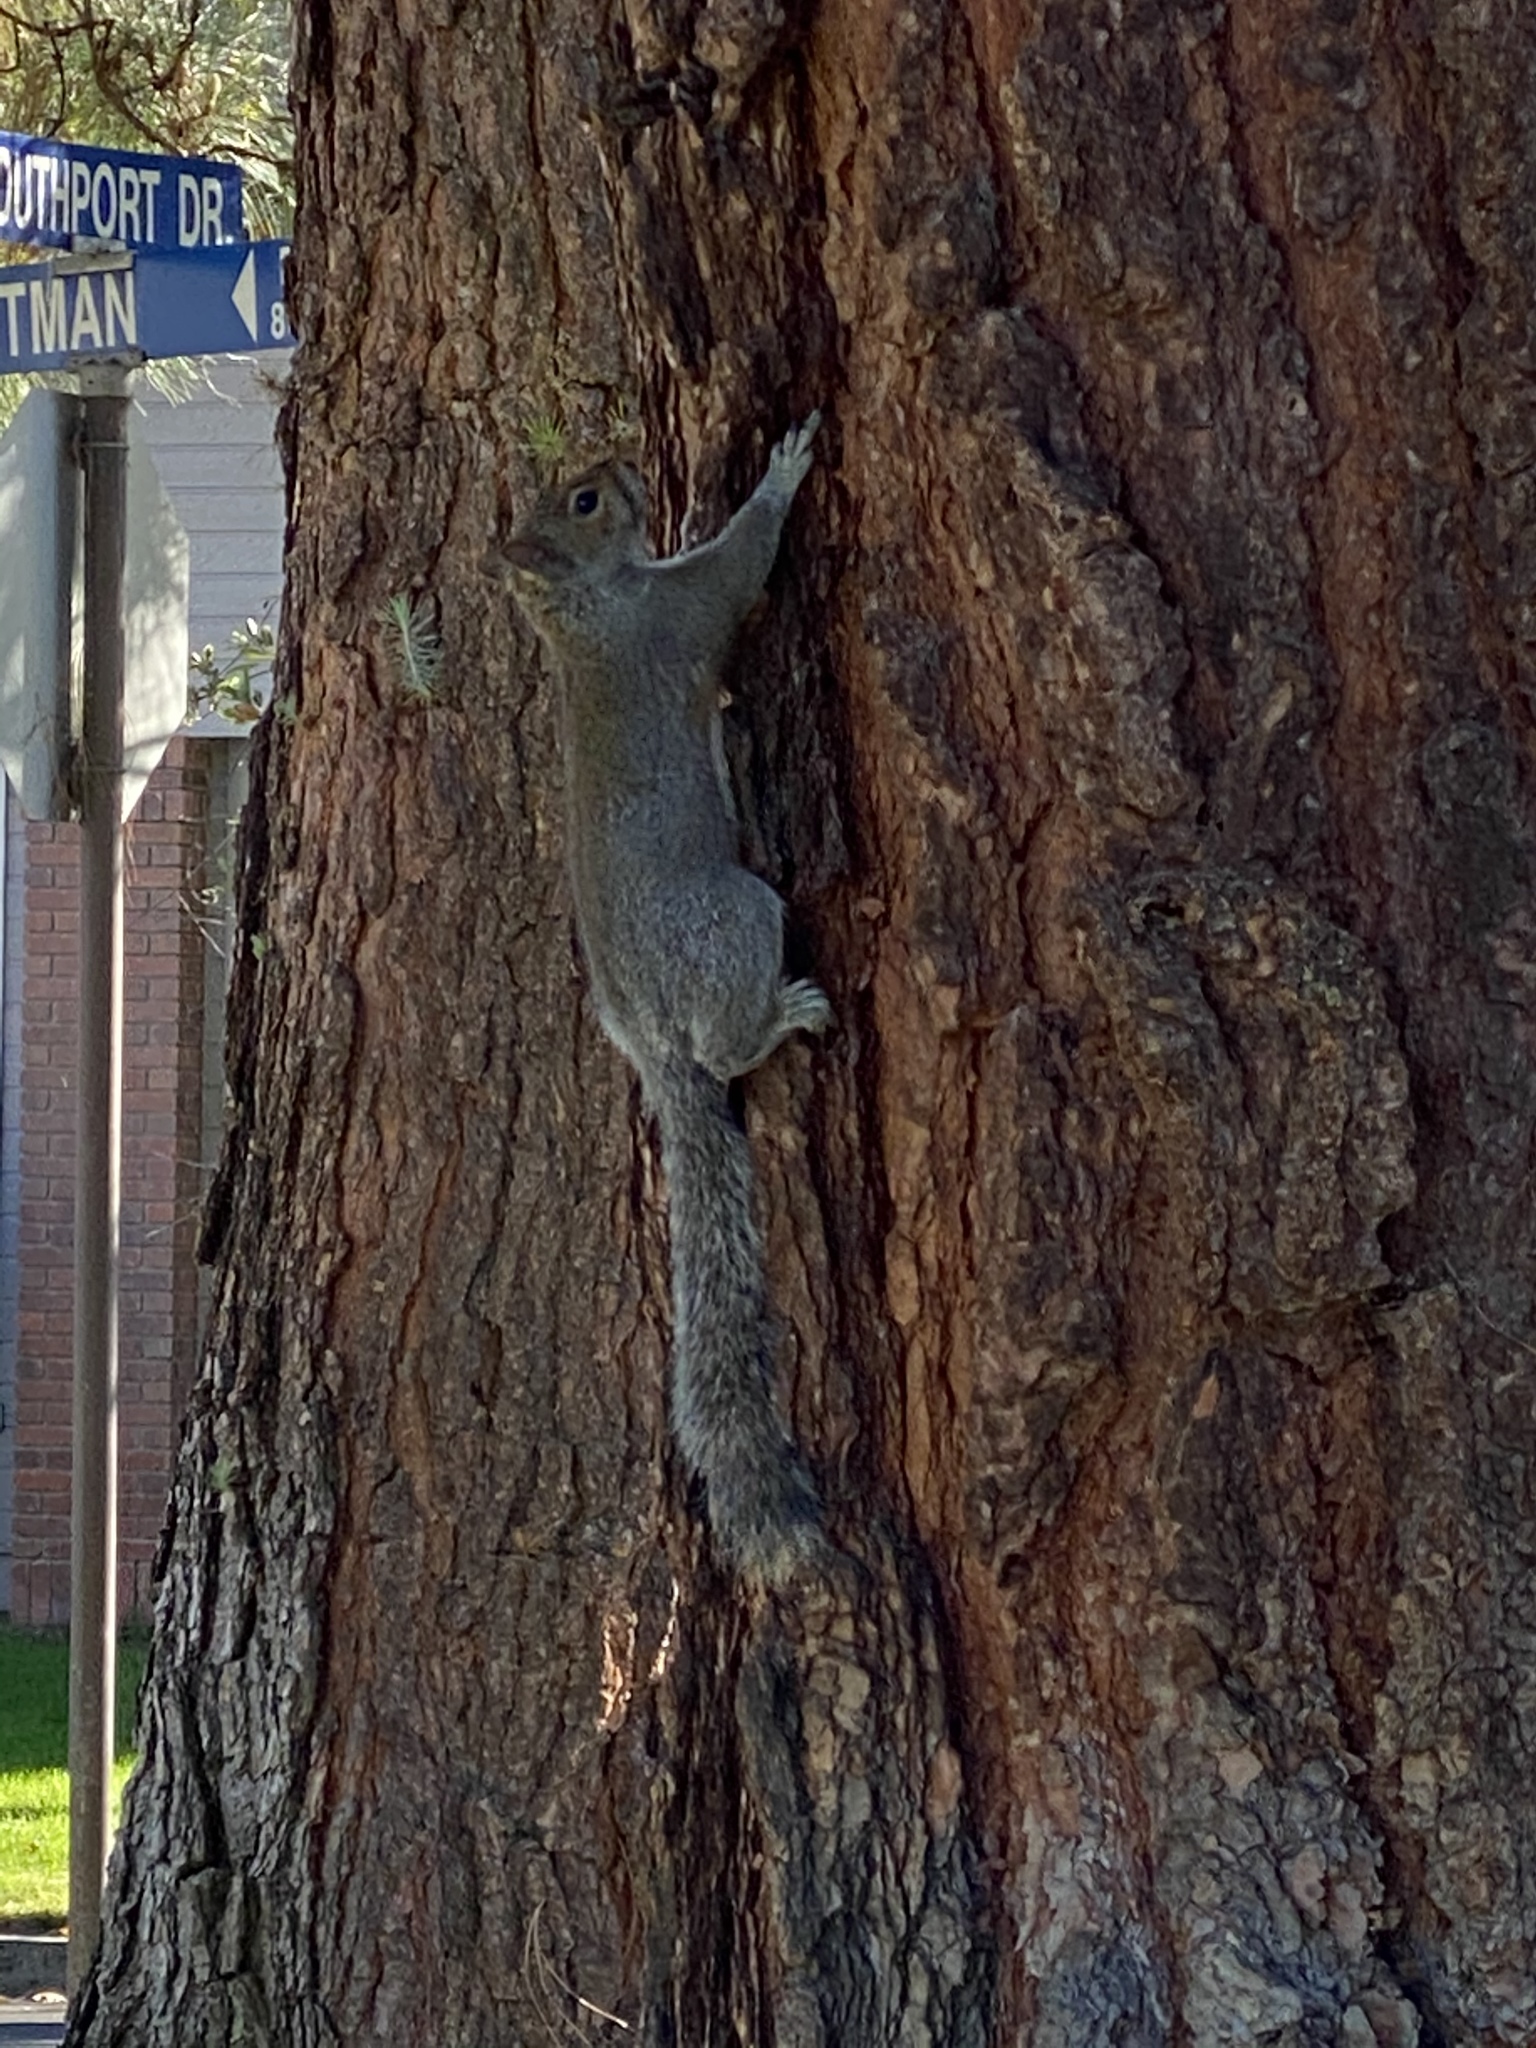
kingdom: Animalia
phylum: Chordata
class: Mammalia
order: Rodentia
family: Sciuridae
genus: Sciurus
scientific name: Sciurus carolinensis
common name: Eastern gray squirrel
